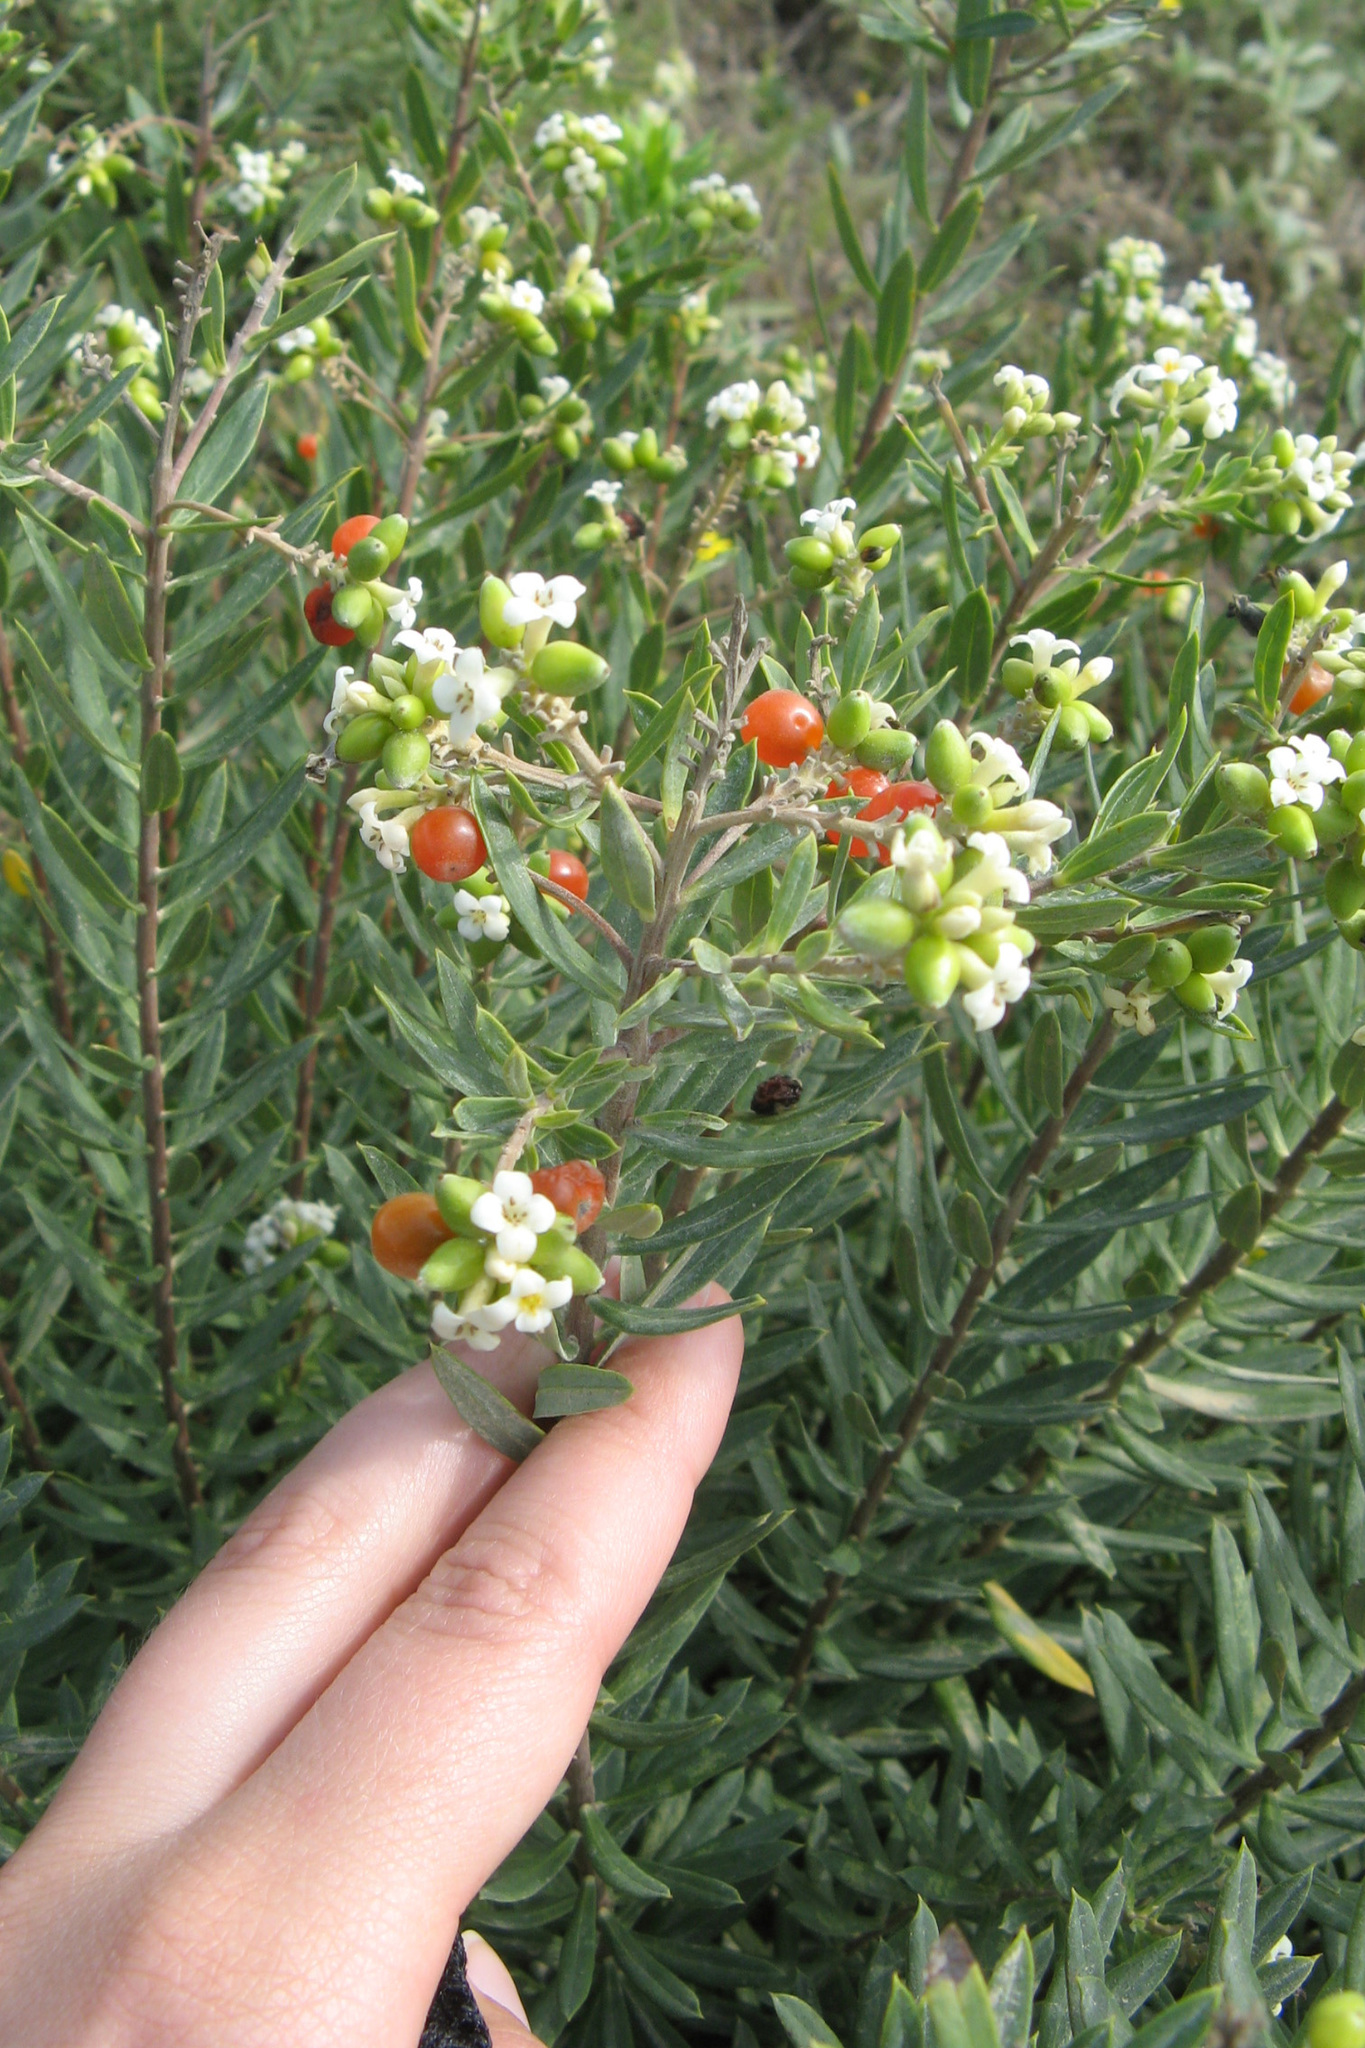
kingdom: Plantae
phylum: Tracheophyta
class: Magnoliopsida
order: Malvales
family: Thymelaeaceae
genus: Daphne
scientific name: Daphne gnidium
